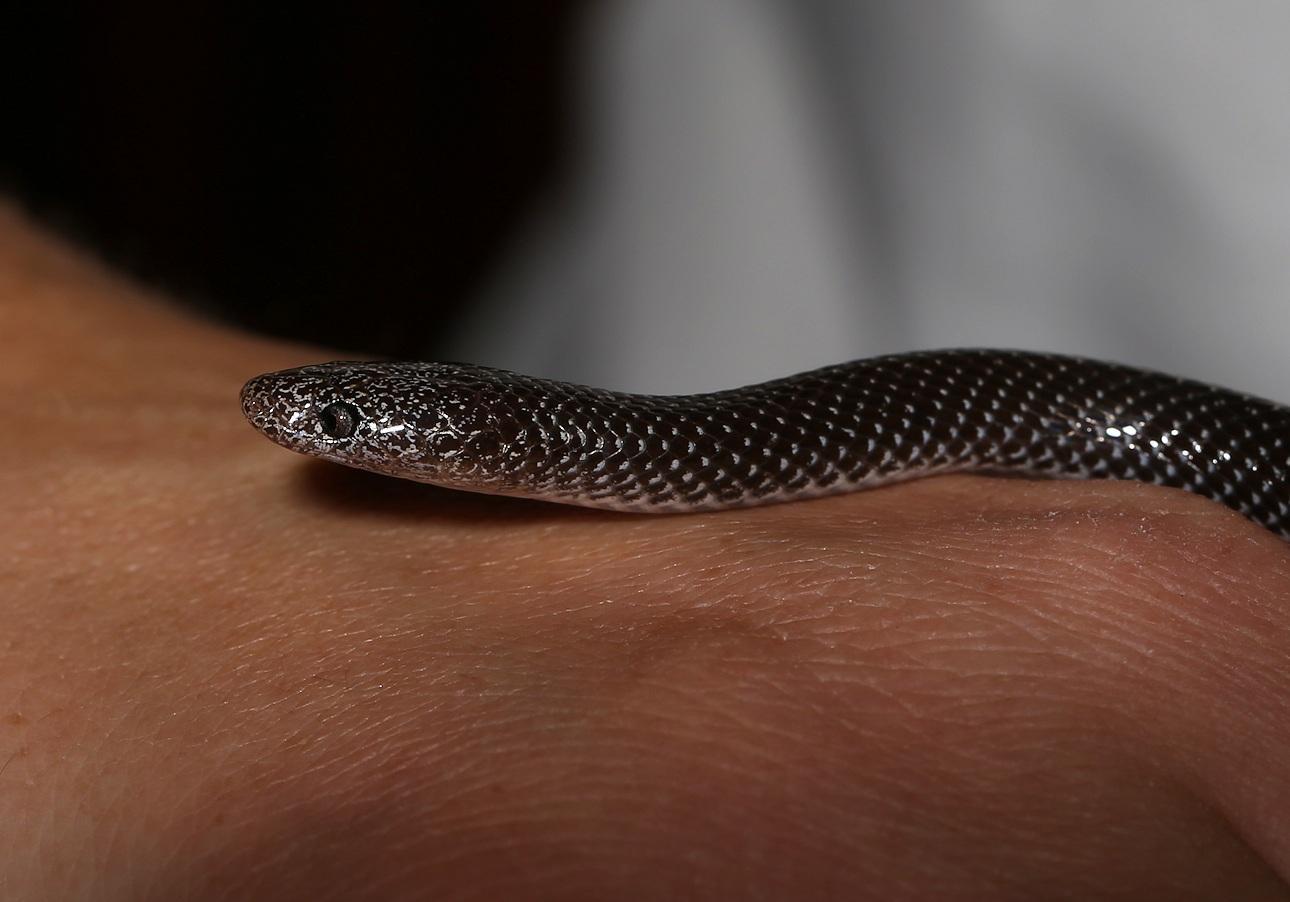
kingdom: Animalia
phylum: Chordata
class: Squamata
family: Lamprophiidae
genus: Lycophidion
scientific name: Lycophidion capense
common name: Cape wolf snake
